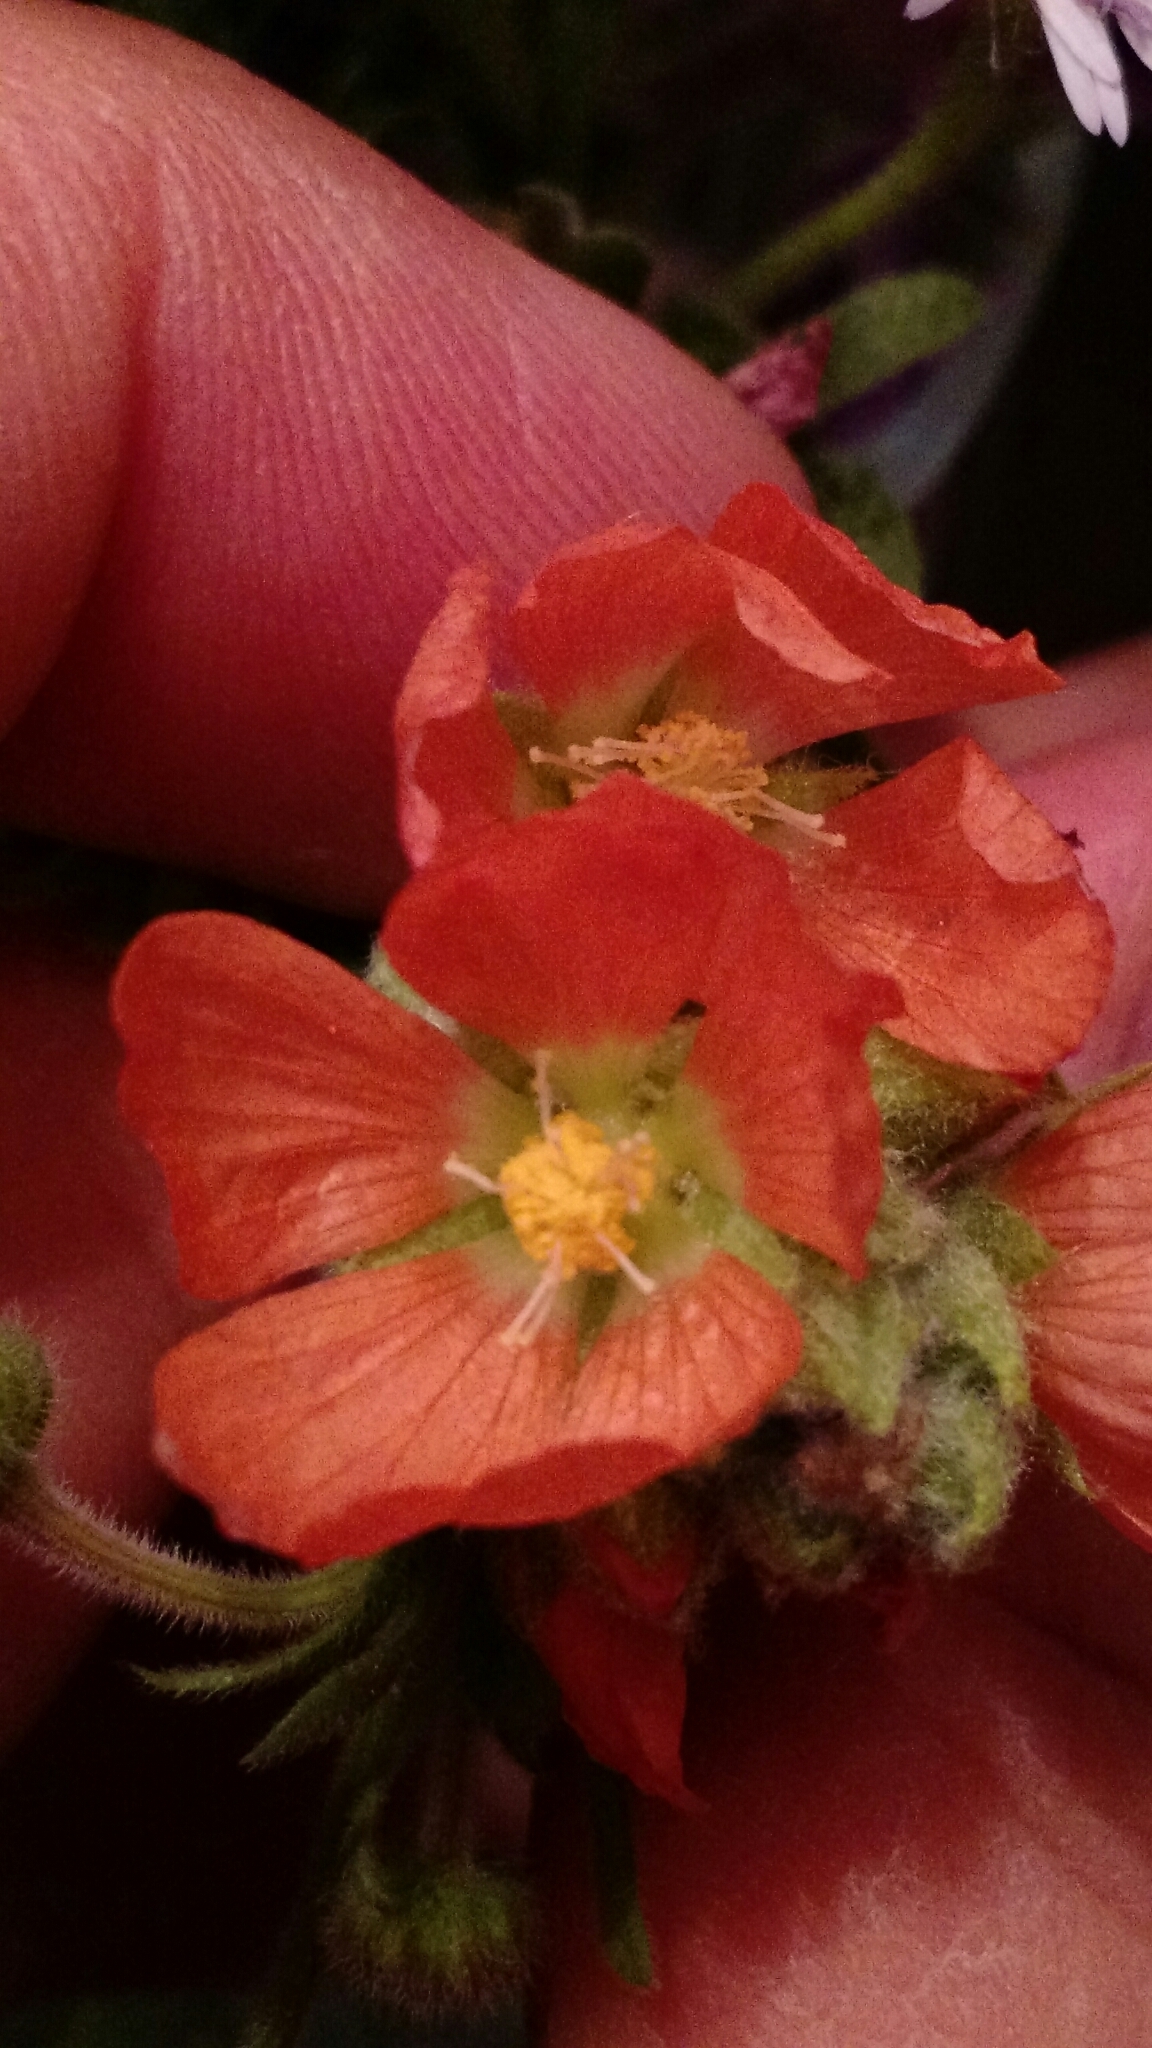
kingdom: Plantae
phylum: Tracheophyta
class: Magnoliopsida
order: Malvales
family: Malvaceae
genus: Sphaeralcea
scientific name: Sphaeralcea coccinea
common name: Moss-rose
